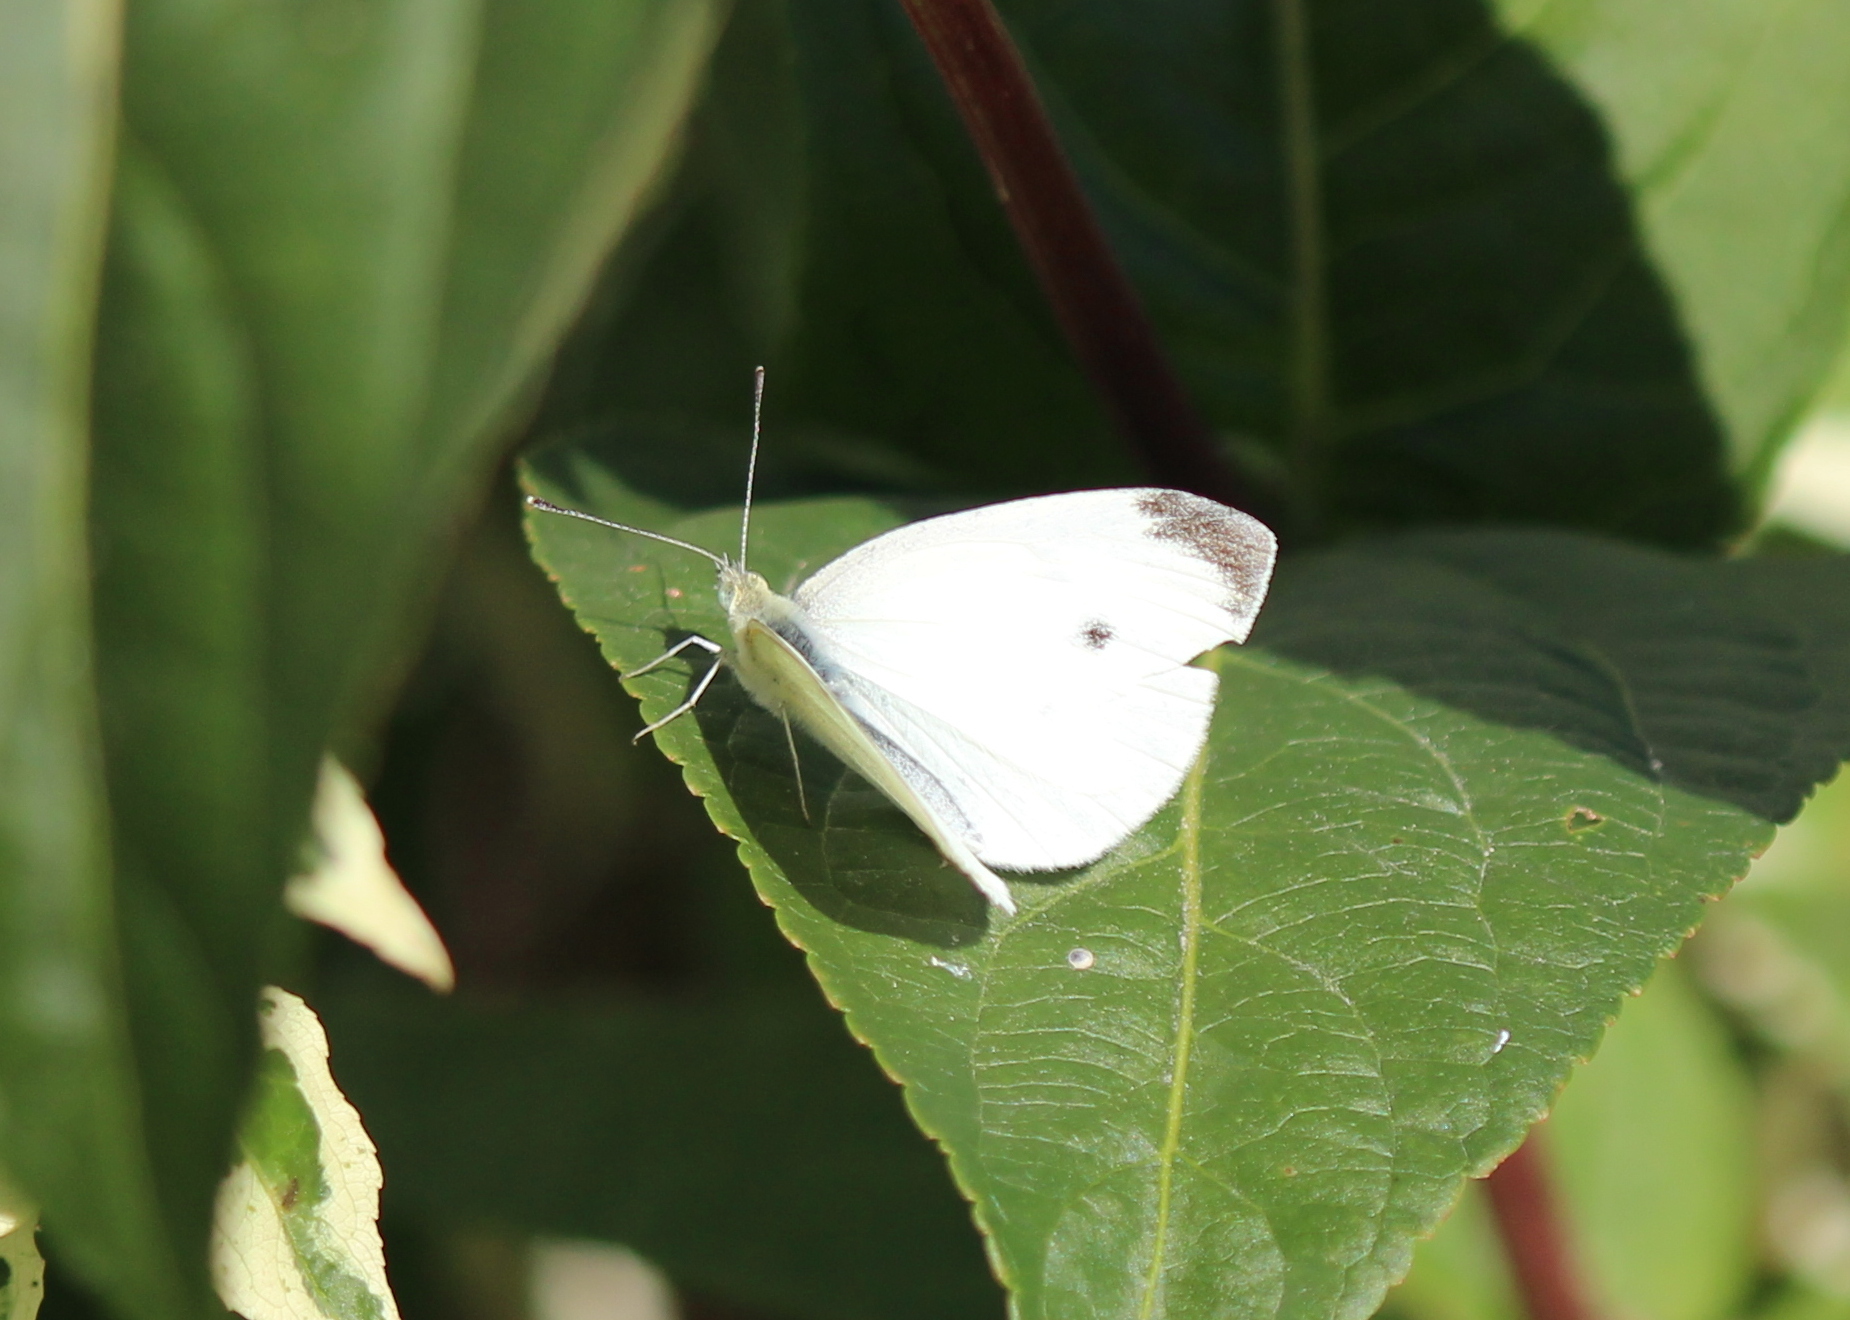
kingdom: Animalia
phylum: Arthropoda
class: Insecta
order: Lepidoptera
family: Pieridae
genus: Pieris
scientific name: Pieris rapae
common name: Small white
